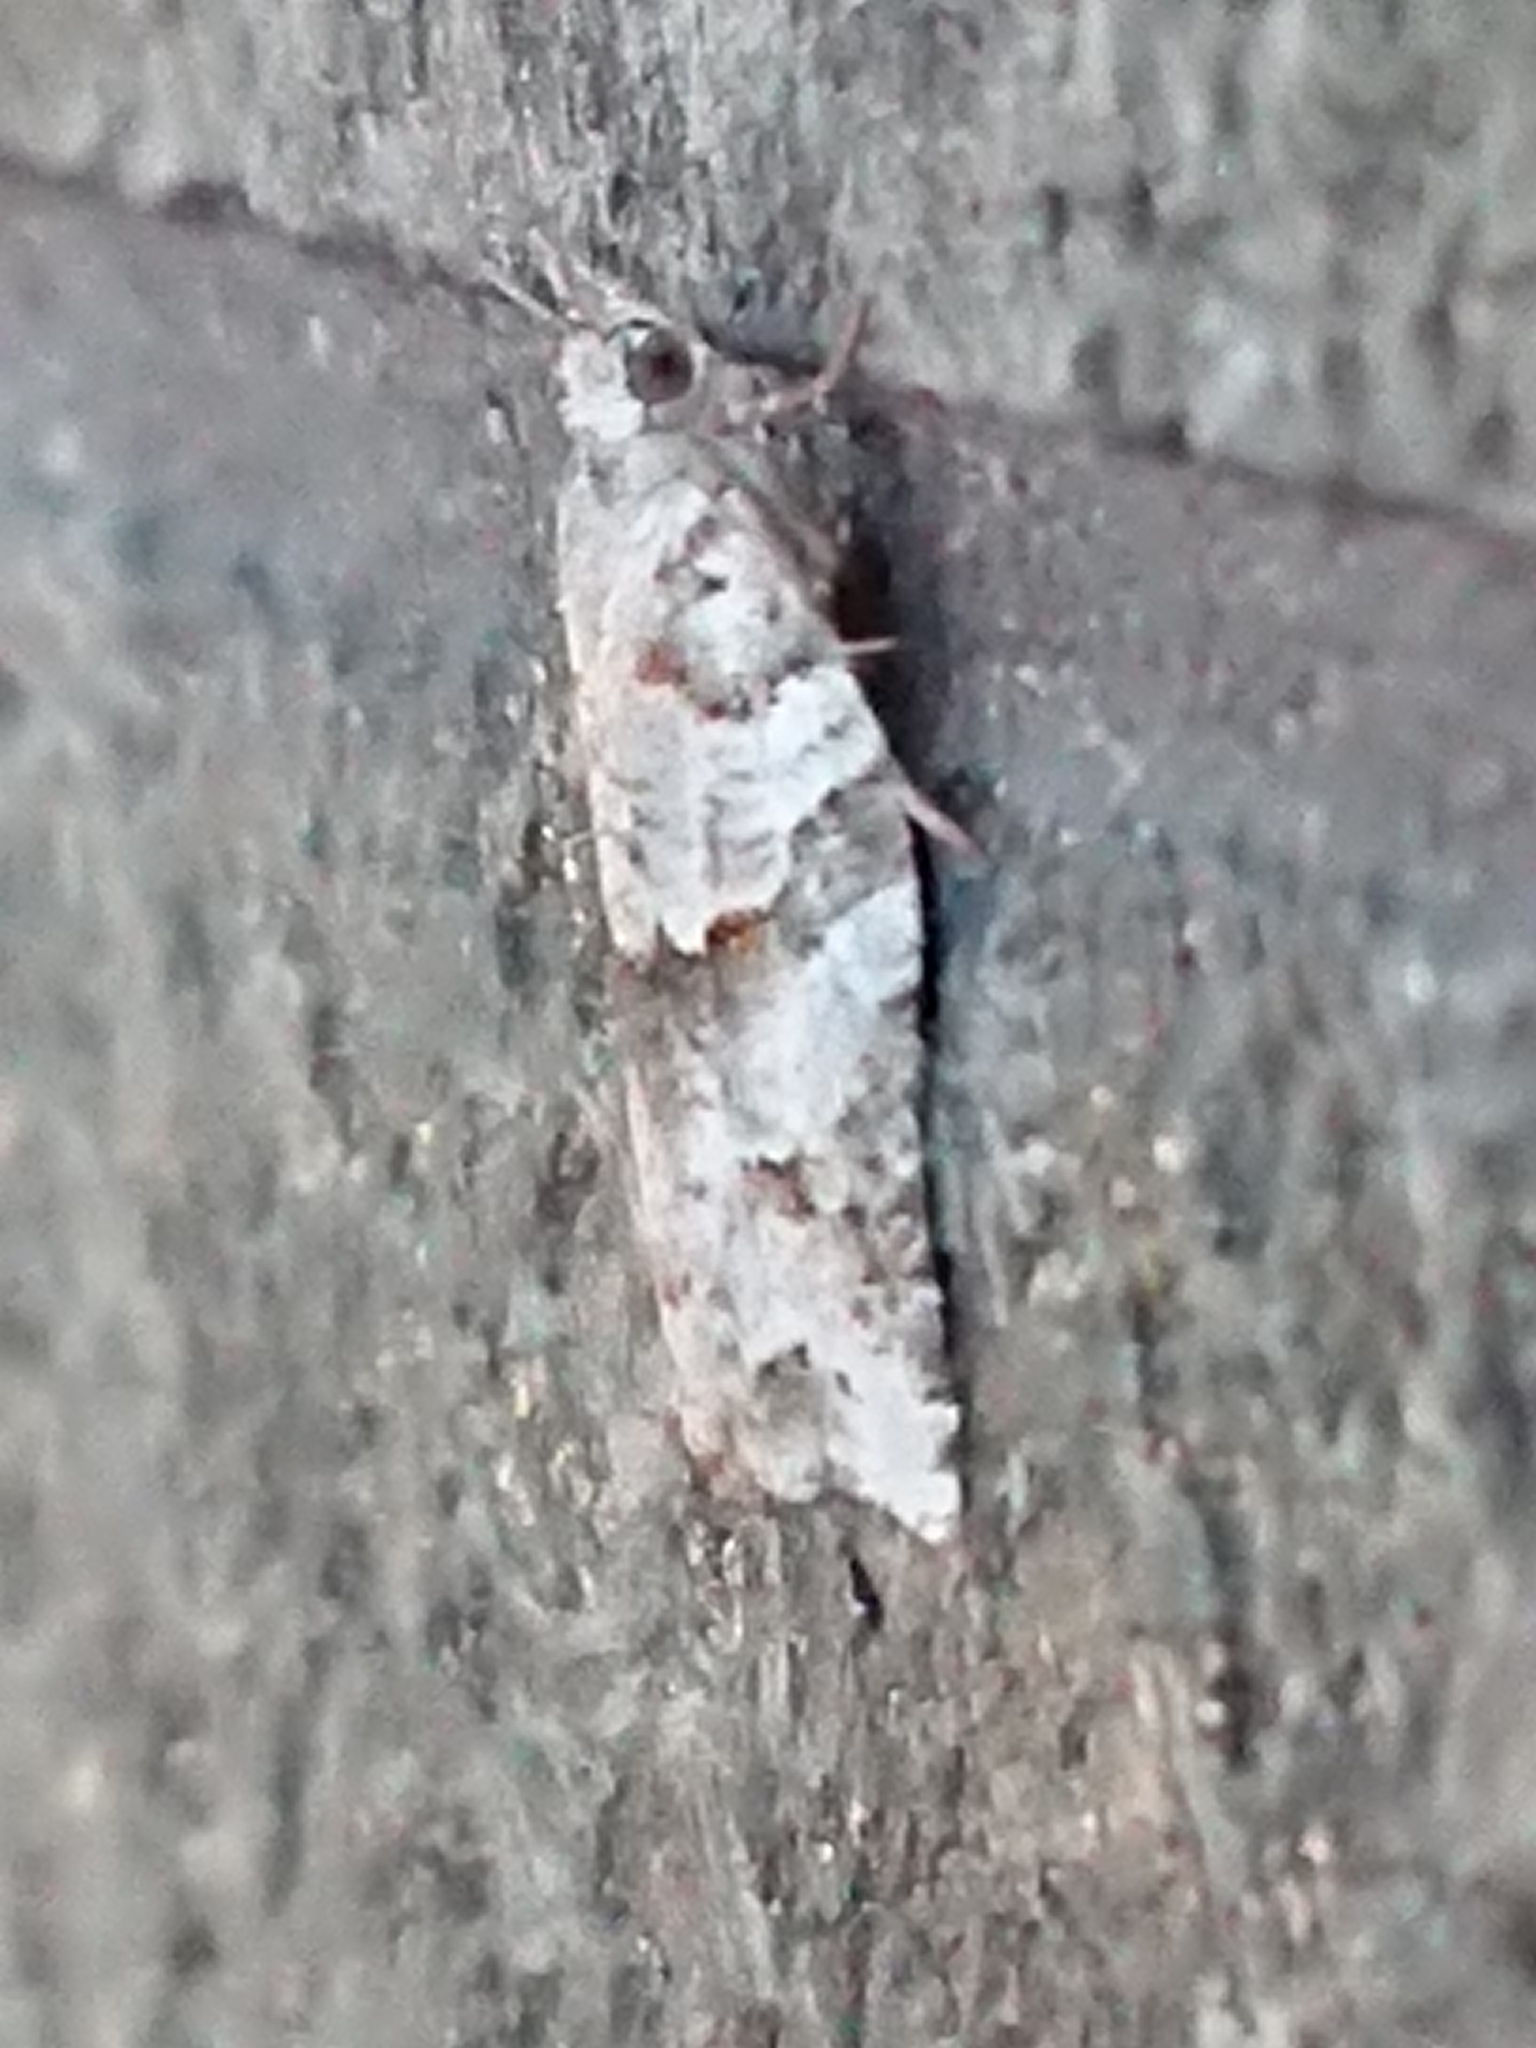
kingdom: Animalia
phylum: Arthropoda
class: Insecta
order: Lepidoptera
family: Tortricidae
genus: Harmologa
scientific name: Harmologa amplexana
